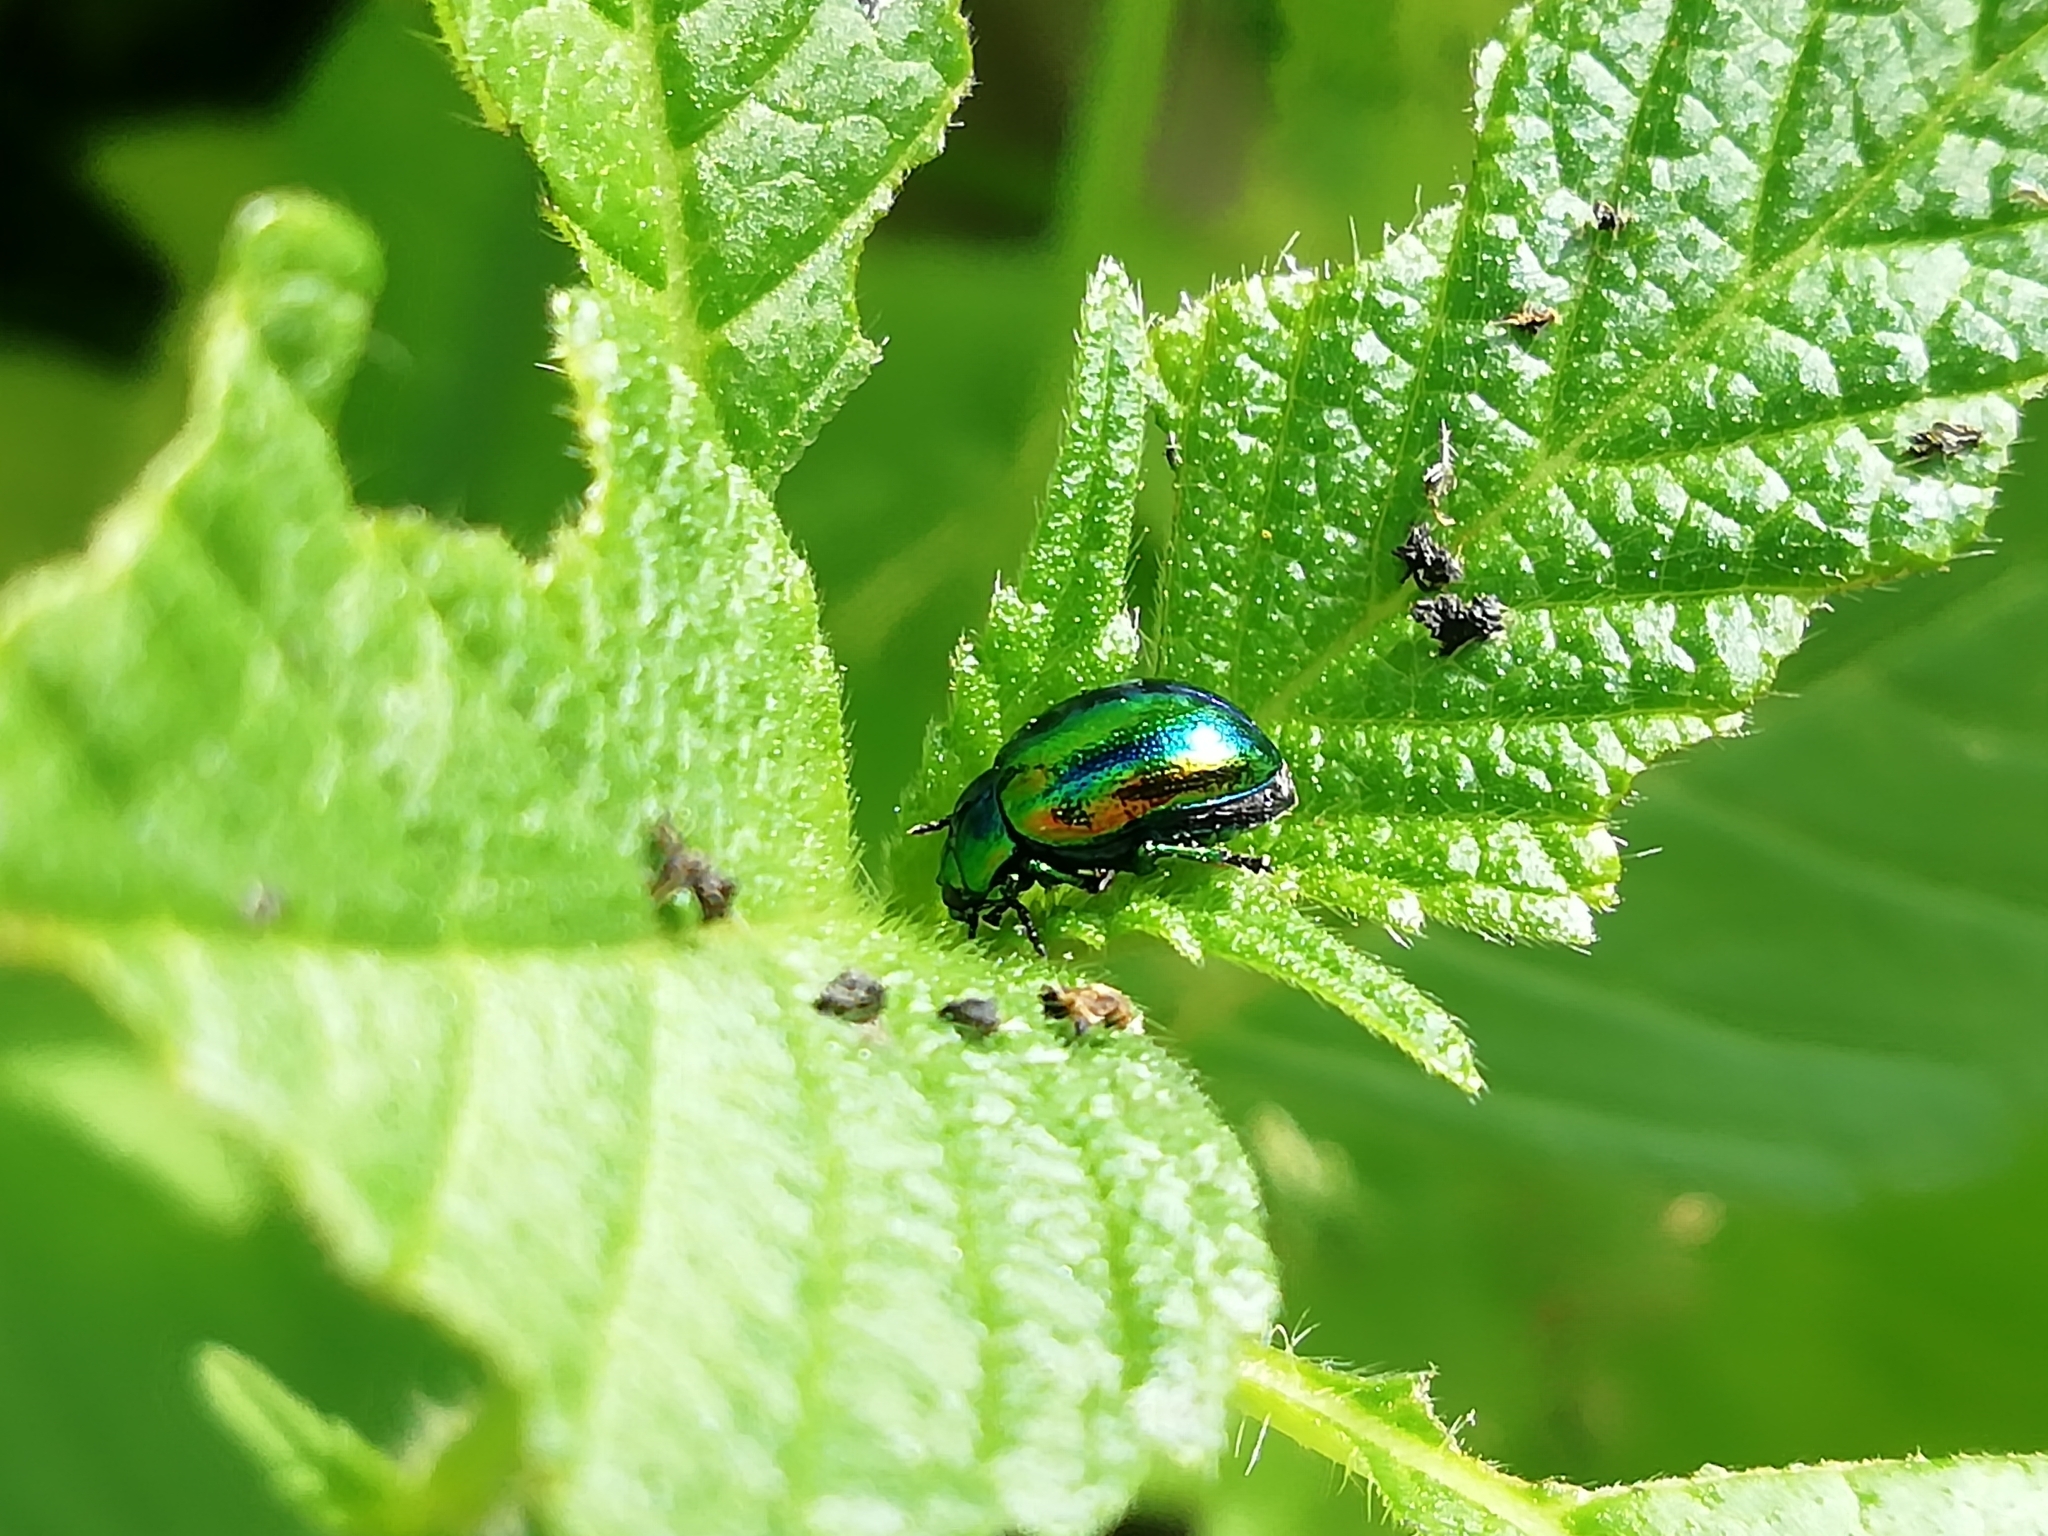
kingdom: Animalia
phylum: Arthropoda
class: Insecta
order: Coleoptera
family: Chrysomelidae
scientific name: Chrysomelidae
